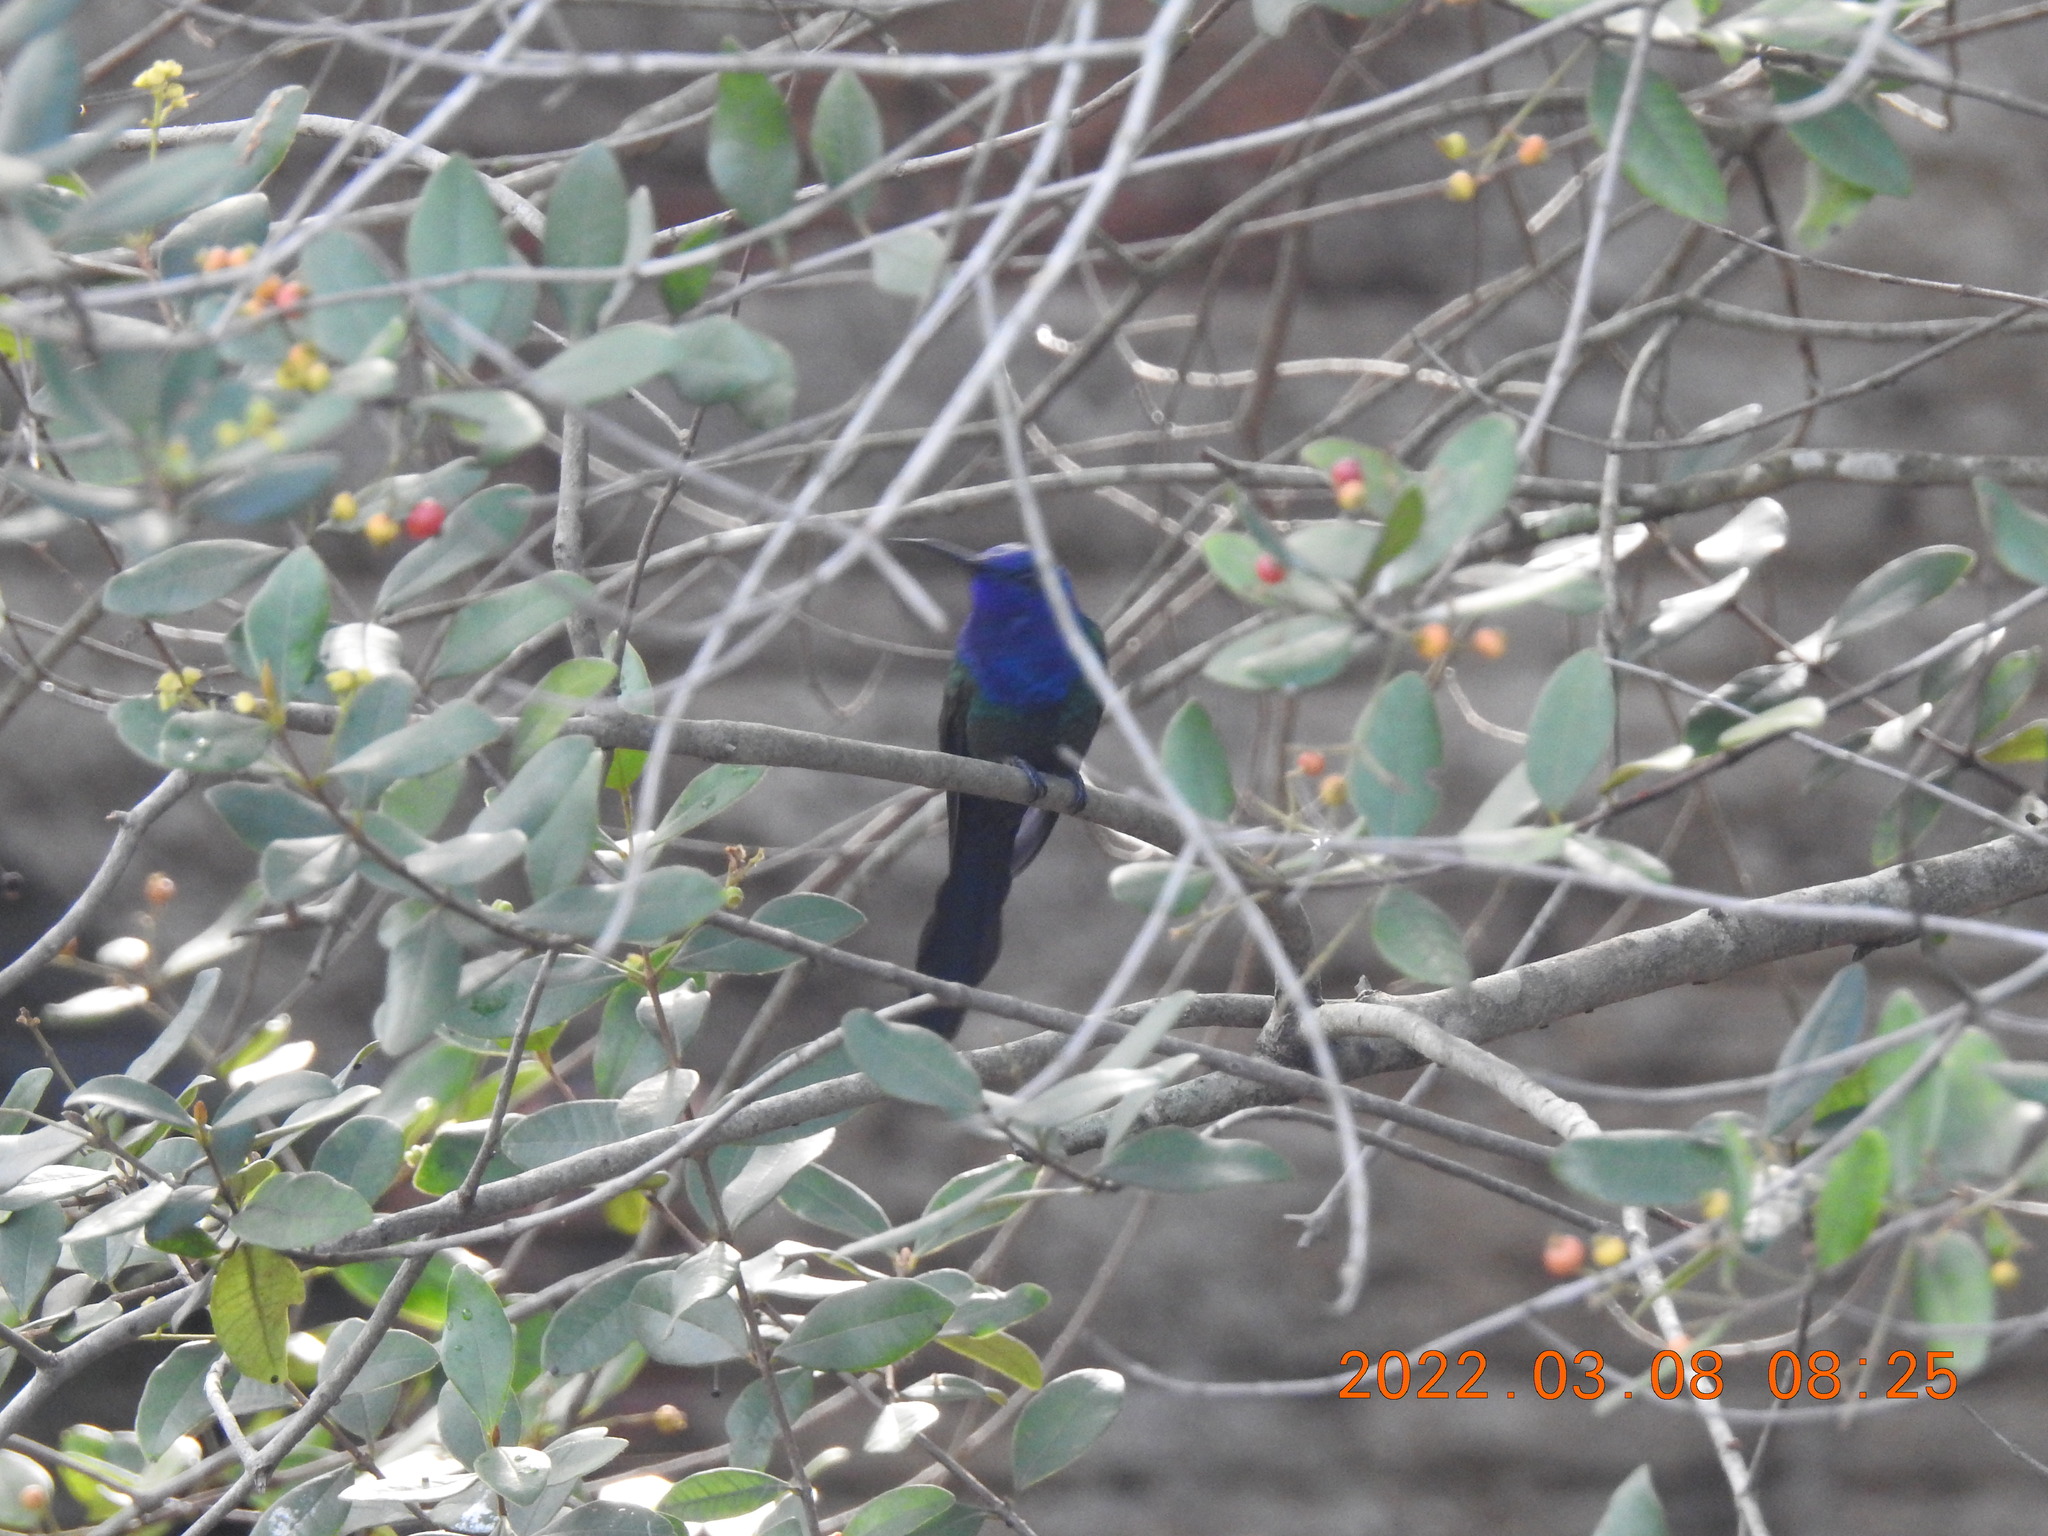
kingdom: Animalia
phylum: Chordata
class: Aves
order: Apodiformes
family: Trochilidae
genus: Eupetomena
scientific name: Eupetomena macroura
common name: Swallow-tailed hummingbird
